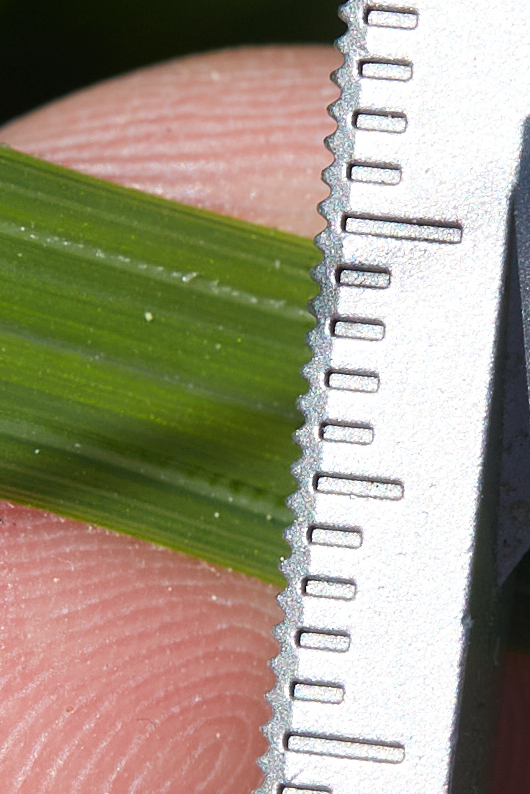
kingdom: Plantae
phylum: Tracheophyta
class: Liliopsida
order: Poales
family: Cyperaceae
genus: Carex
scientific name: Carex nudata
